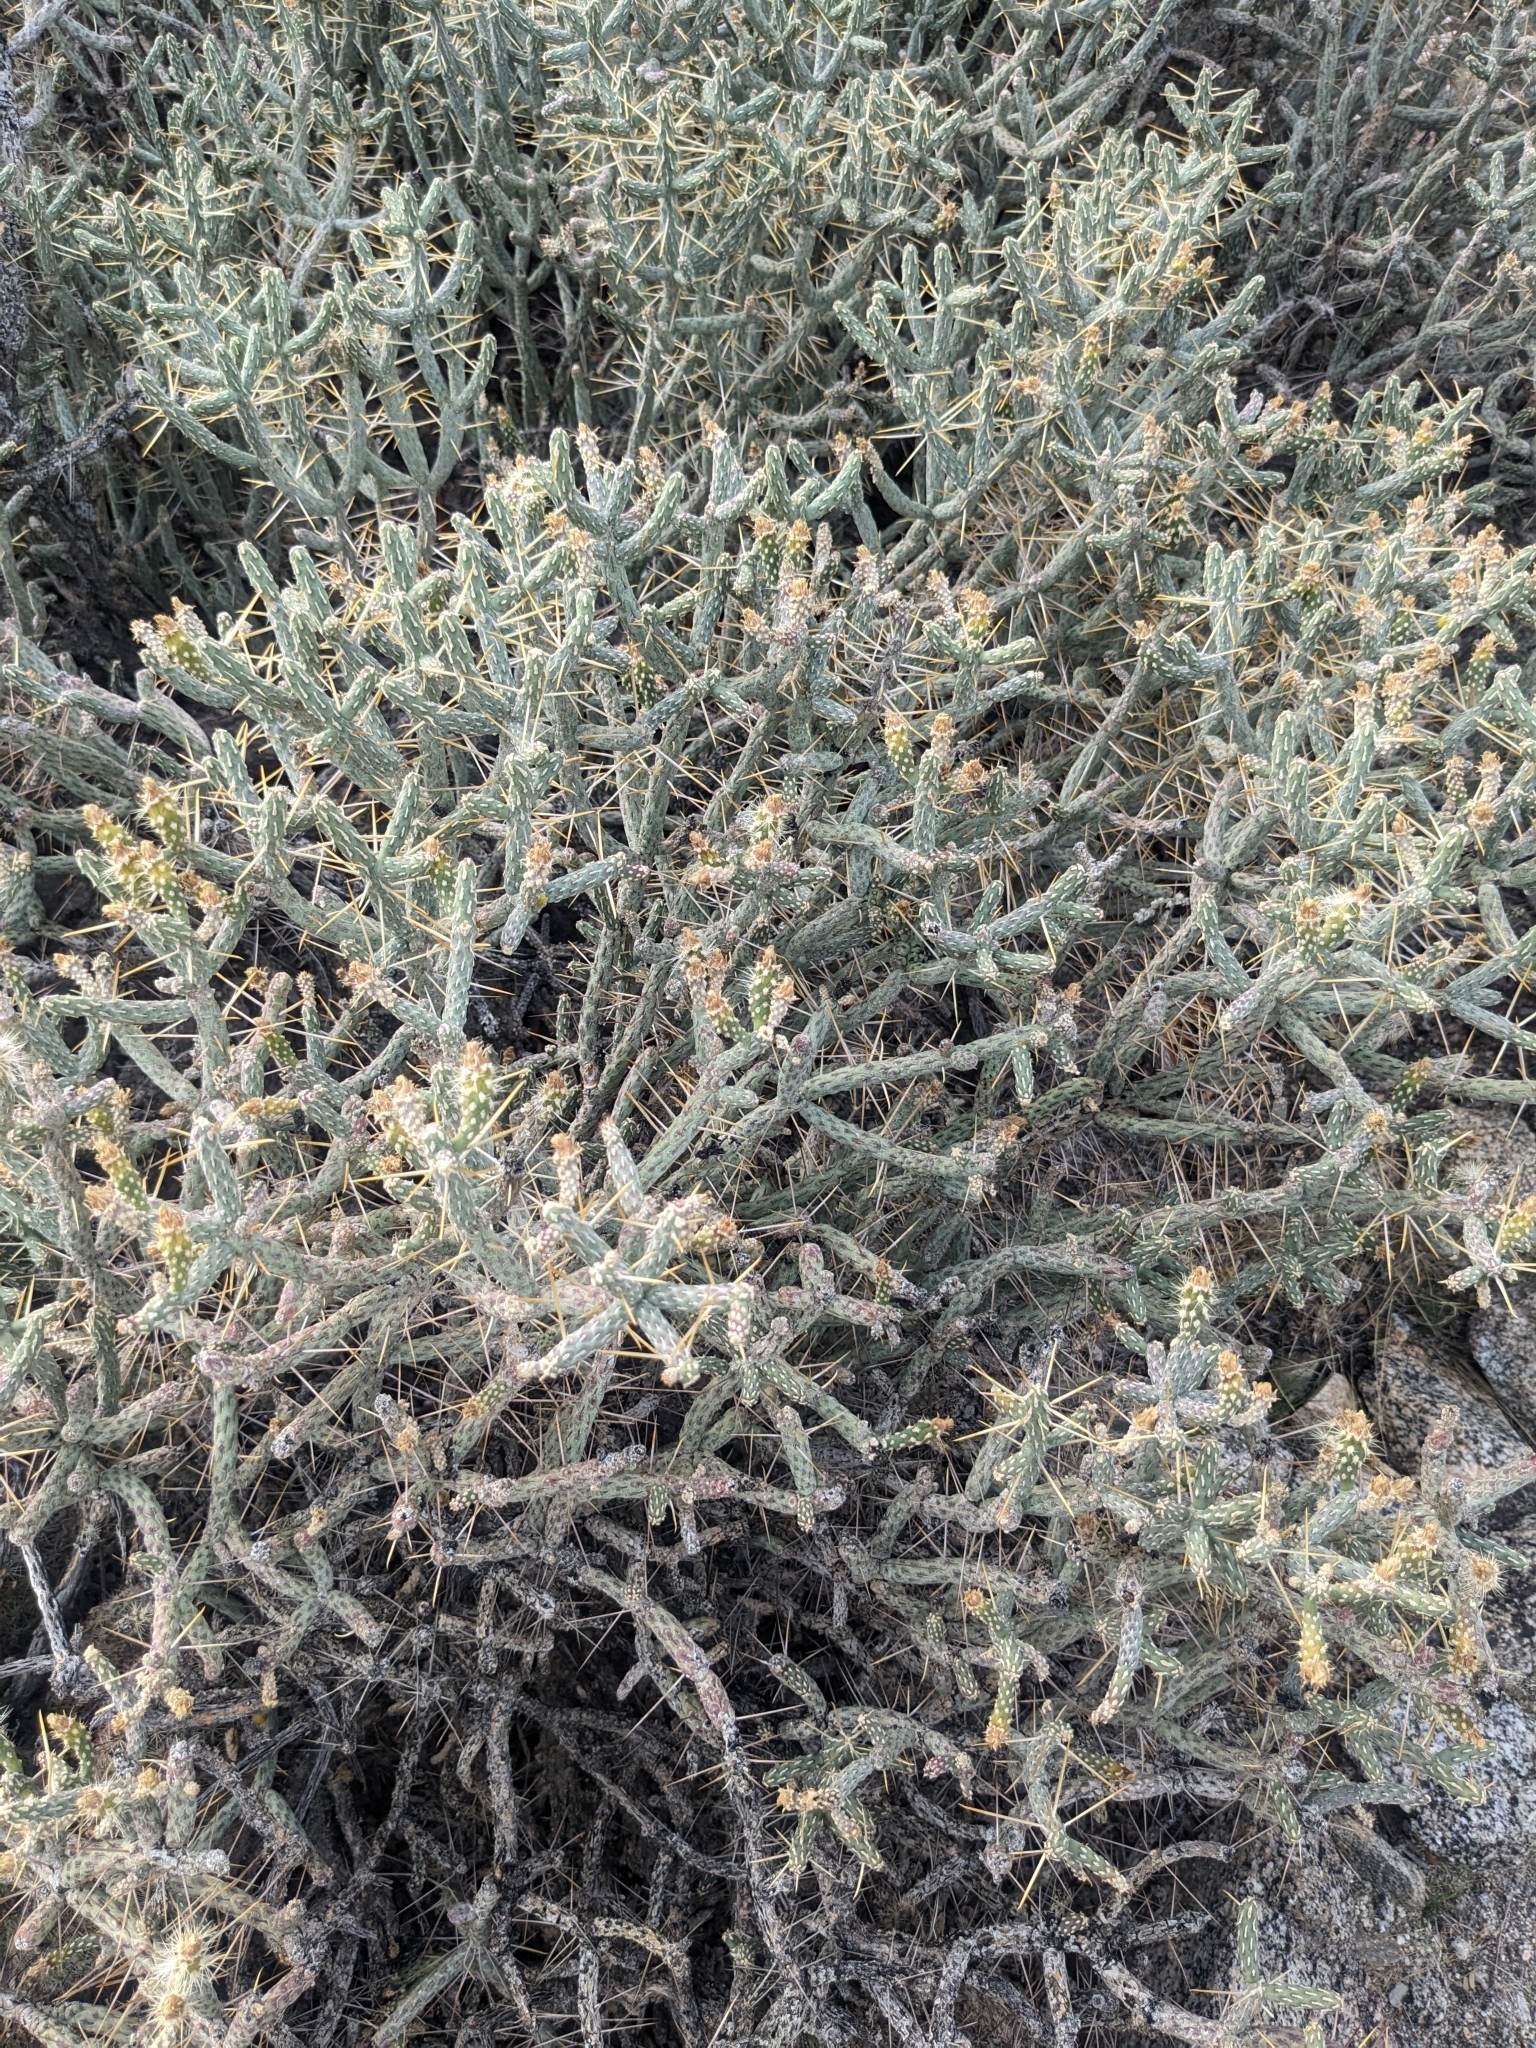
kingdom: Plantae
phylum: Tracheophyta
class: Magnoliopsida
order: Caryophyllales
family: Cactaceae
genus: Cylindropuntia
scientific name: Cylindropuntia ramosissima
